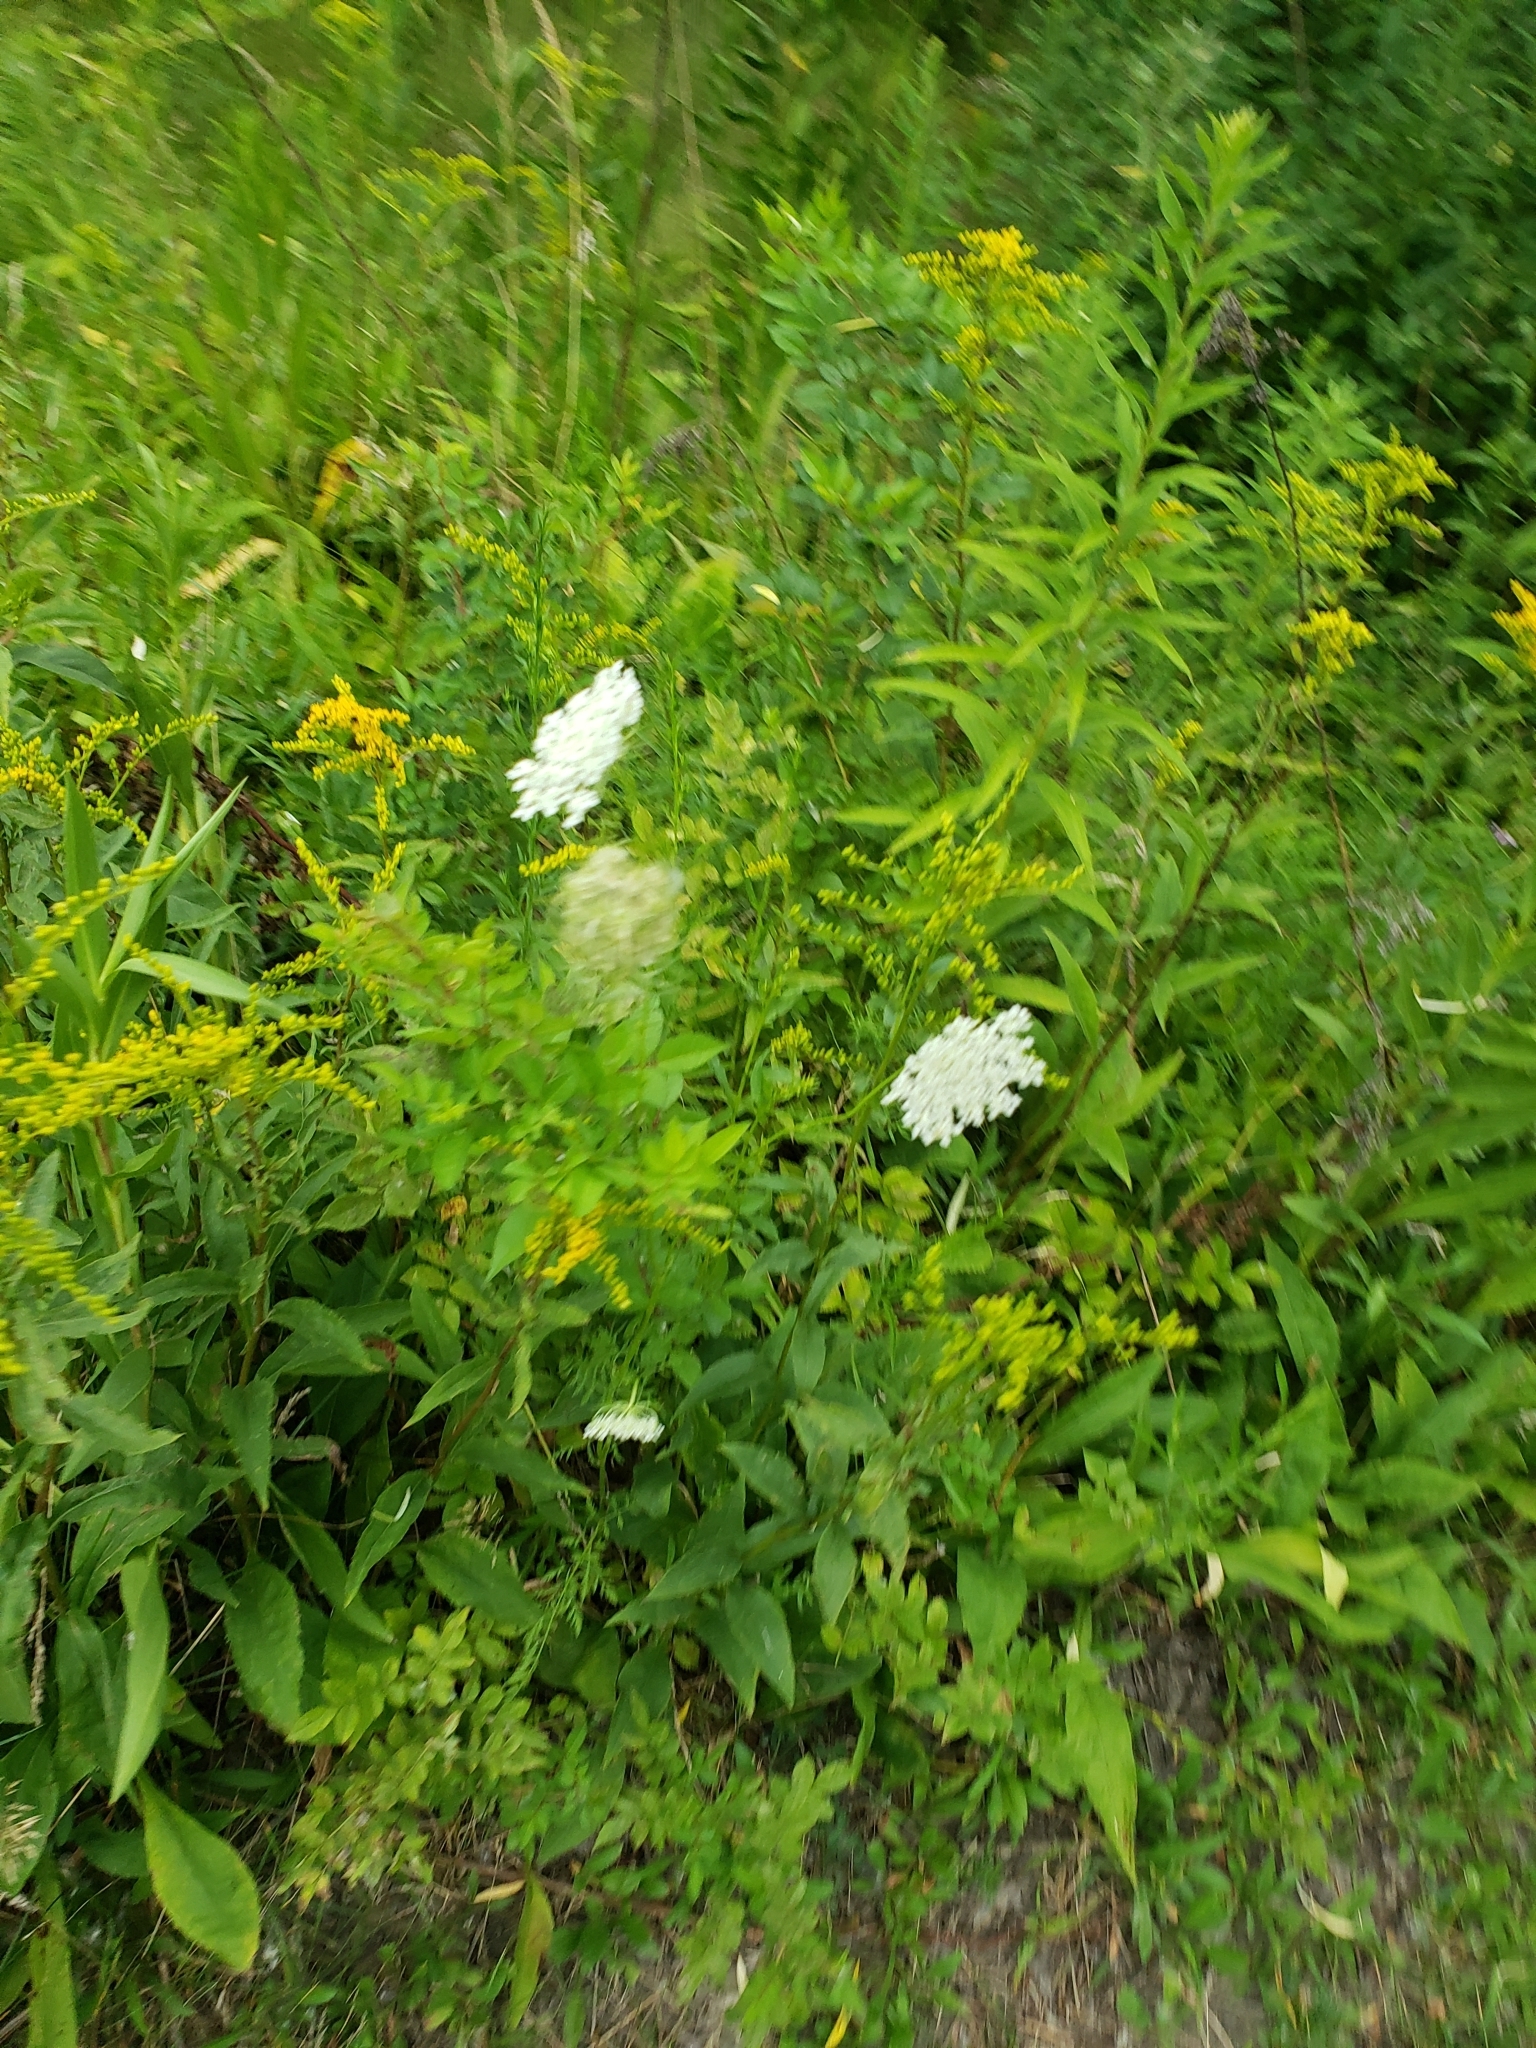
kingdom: Plantae
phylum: Tracheophyta
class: Magnoliopsida
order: Apiales
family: Apiaceae
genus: Daucus
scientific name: Daucus carota
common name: Wild carrot
